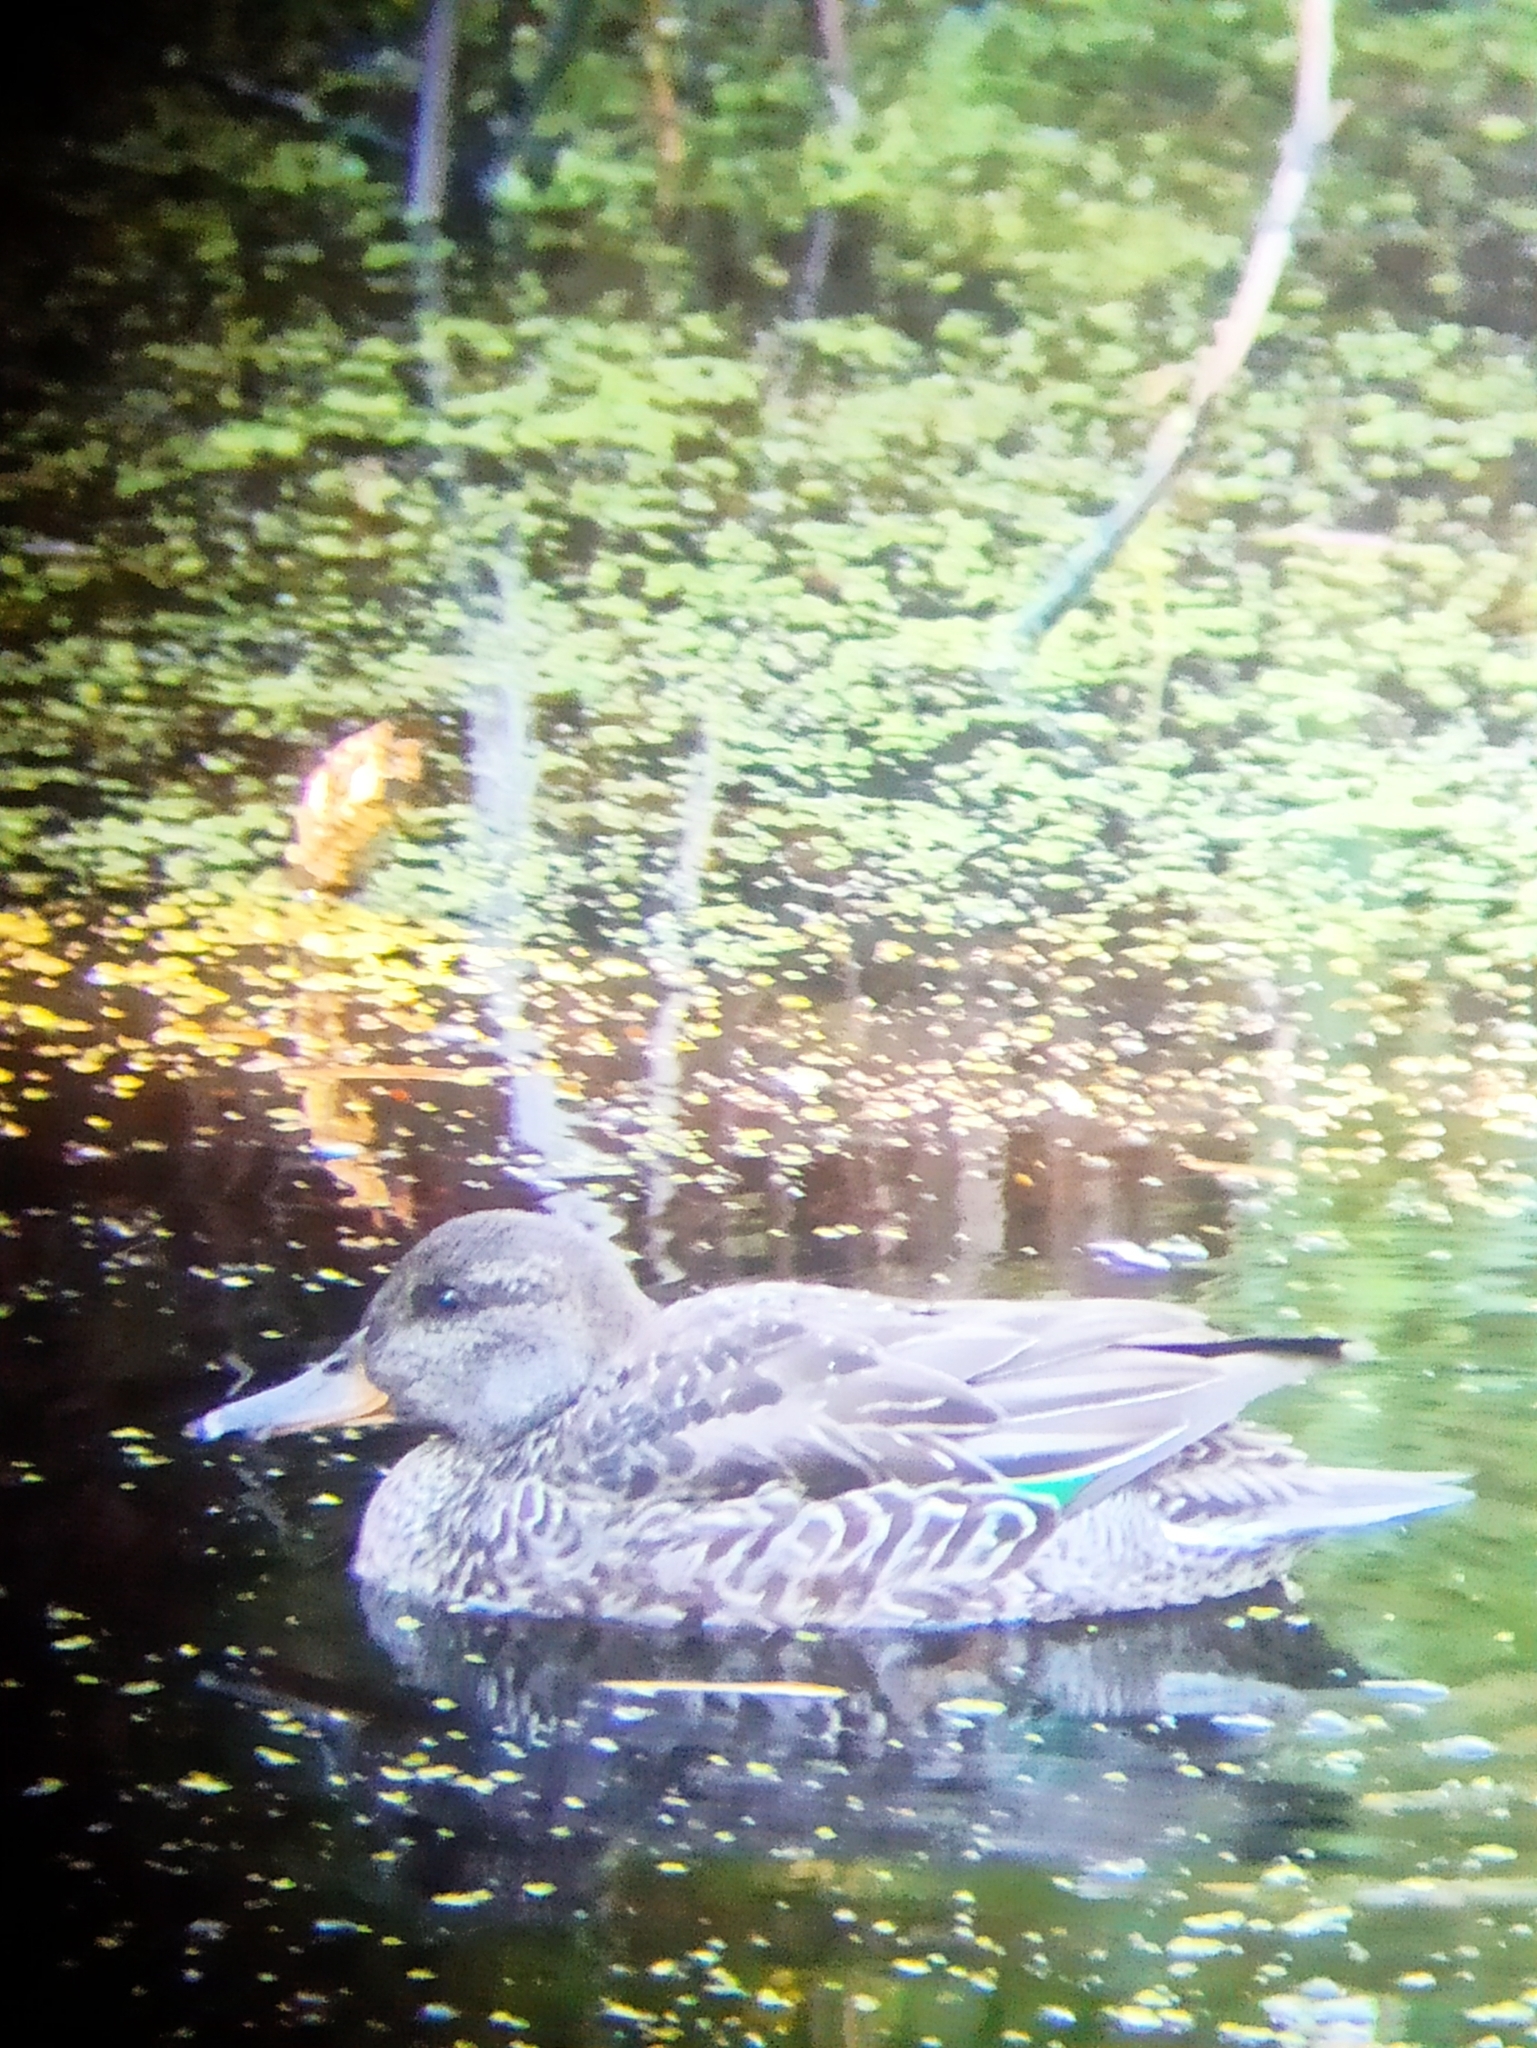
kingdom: Animalia
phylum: Chordata
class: Aves
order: Anseriformes
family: Anatidae
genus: Anas
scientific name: Anas crecca
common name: Eurasian teal
